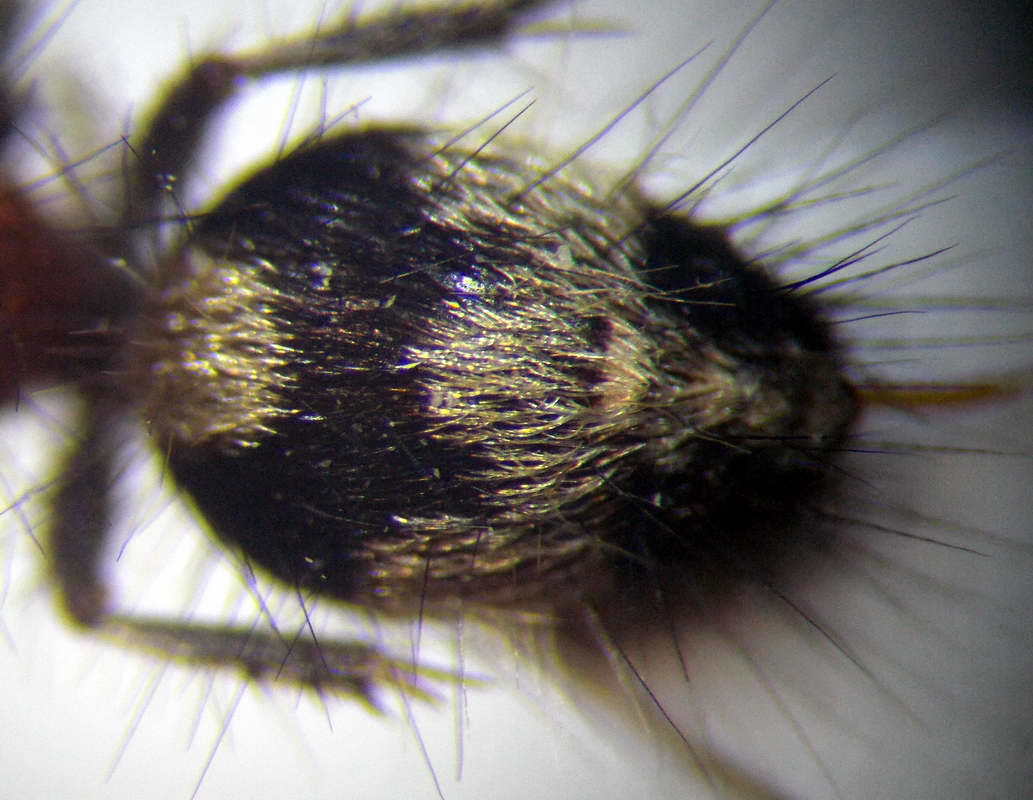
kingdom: Animalia
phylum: Arthropoda
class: Insecta
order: Hymenoptera
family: Mutillidae
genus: Dasylabris
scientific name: Dasylabris regalis
